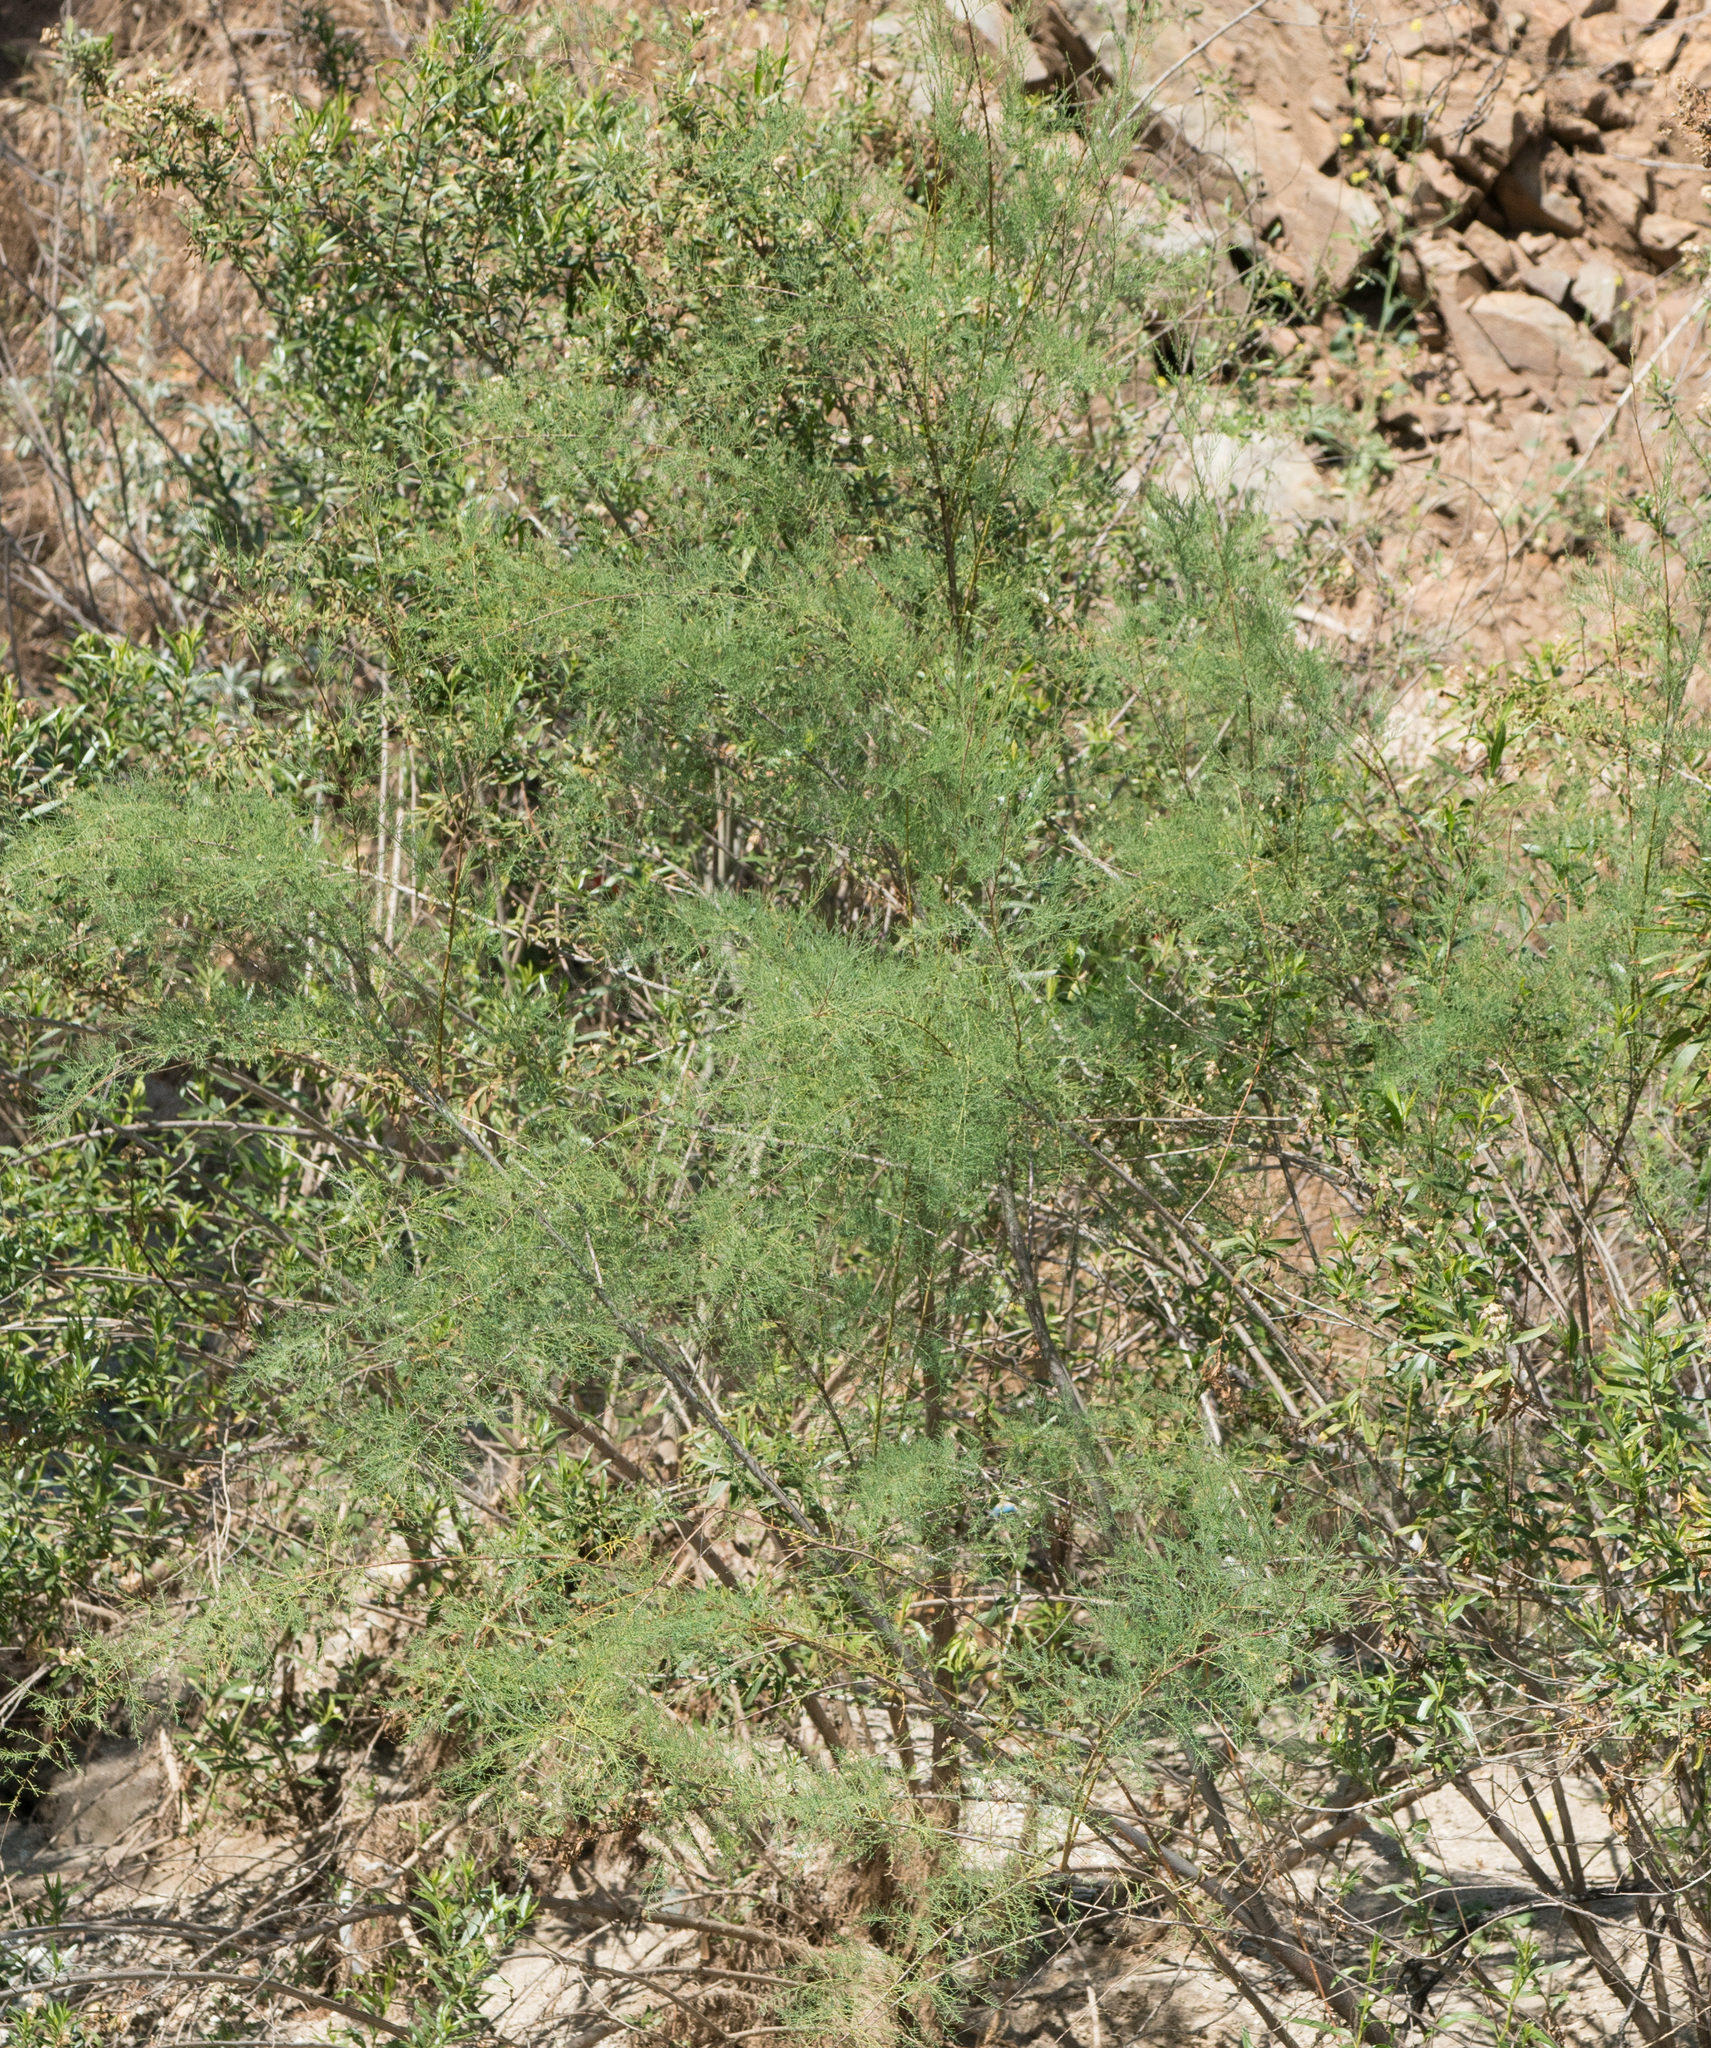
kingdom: Plantae
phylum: Tracheophyta
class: Magnoliopsida
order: Caryophyllales
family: Tamaricaceae
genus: Tamarix
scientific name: Tamarix
